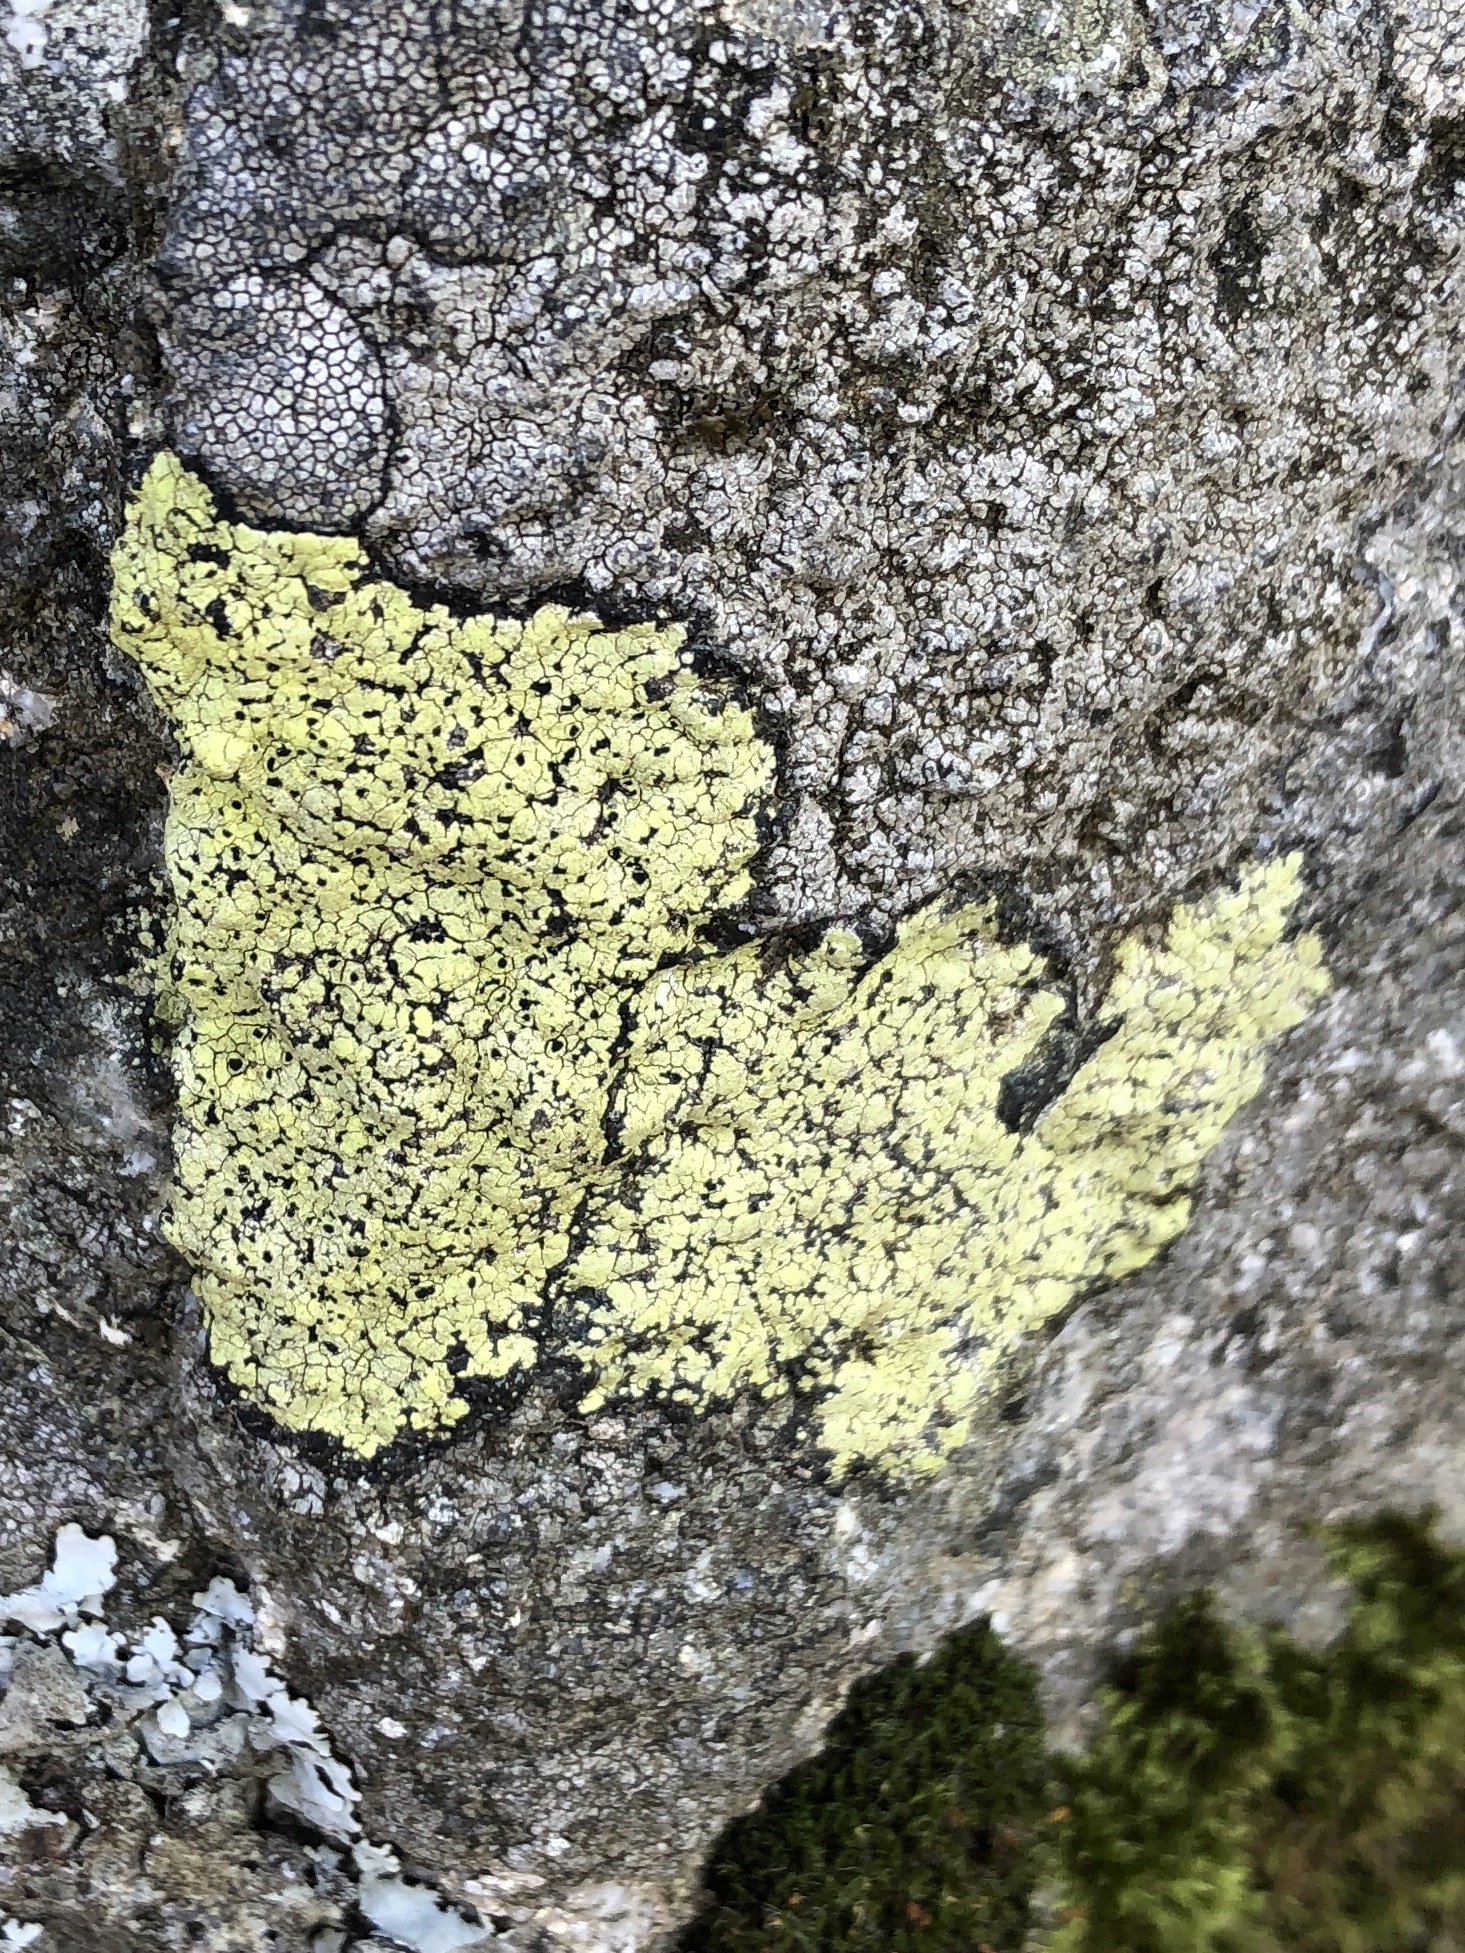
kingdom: Fungi
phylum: Ascomycota
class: Lecanoromycetes
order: Rhizocarpales
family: Rhizocarpaceae
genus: Rhizocarpon
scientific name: Rhizocarpon geographicum
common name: Yellow map lichen
